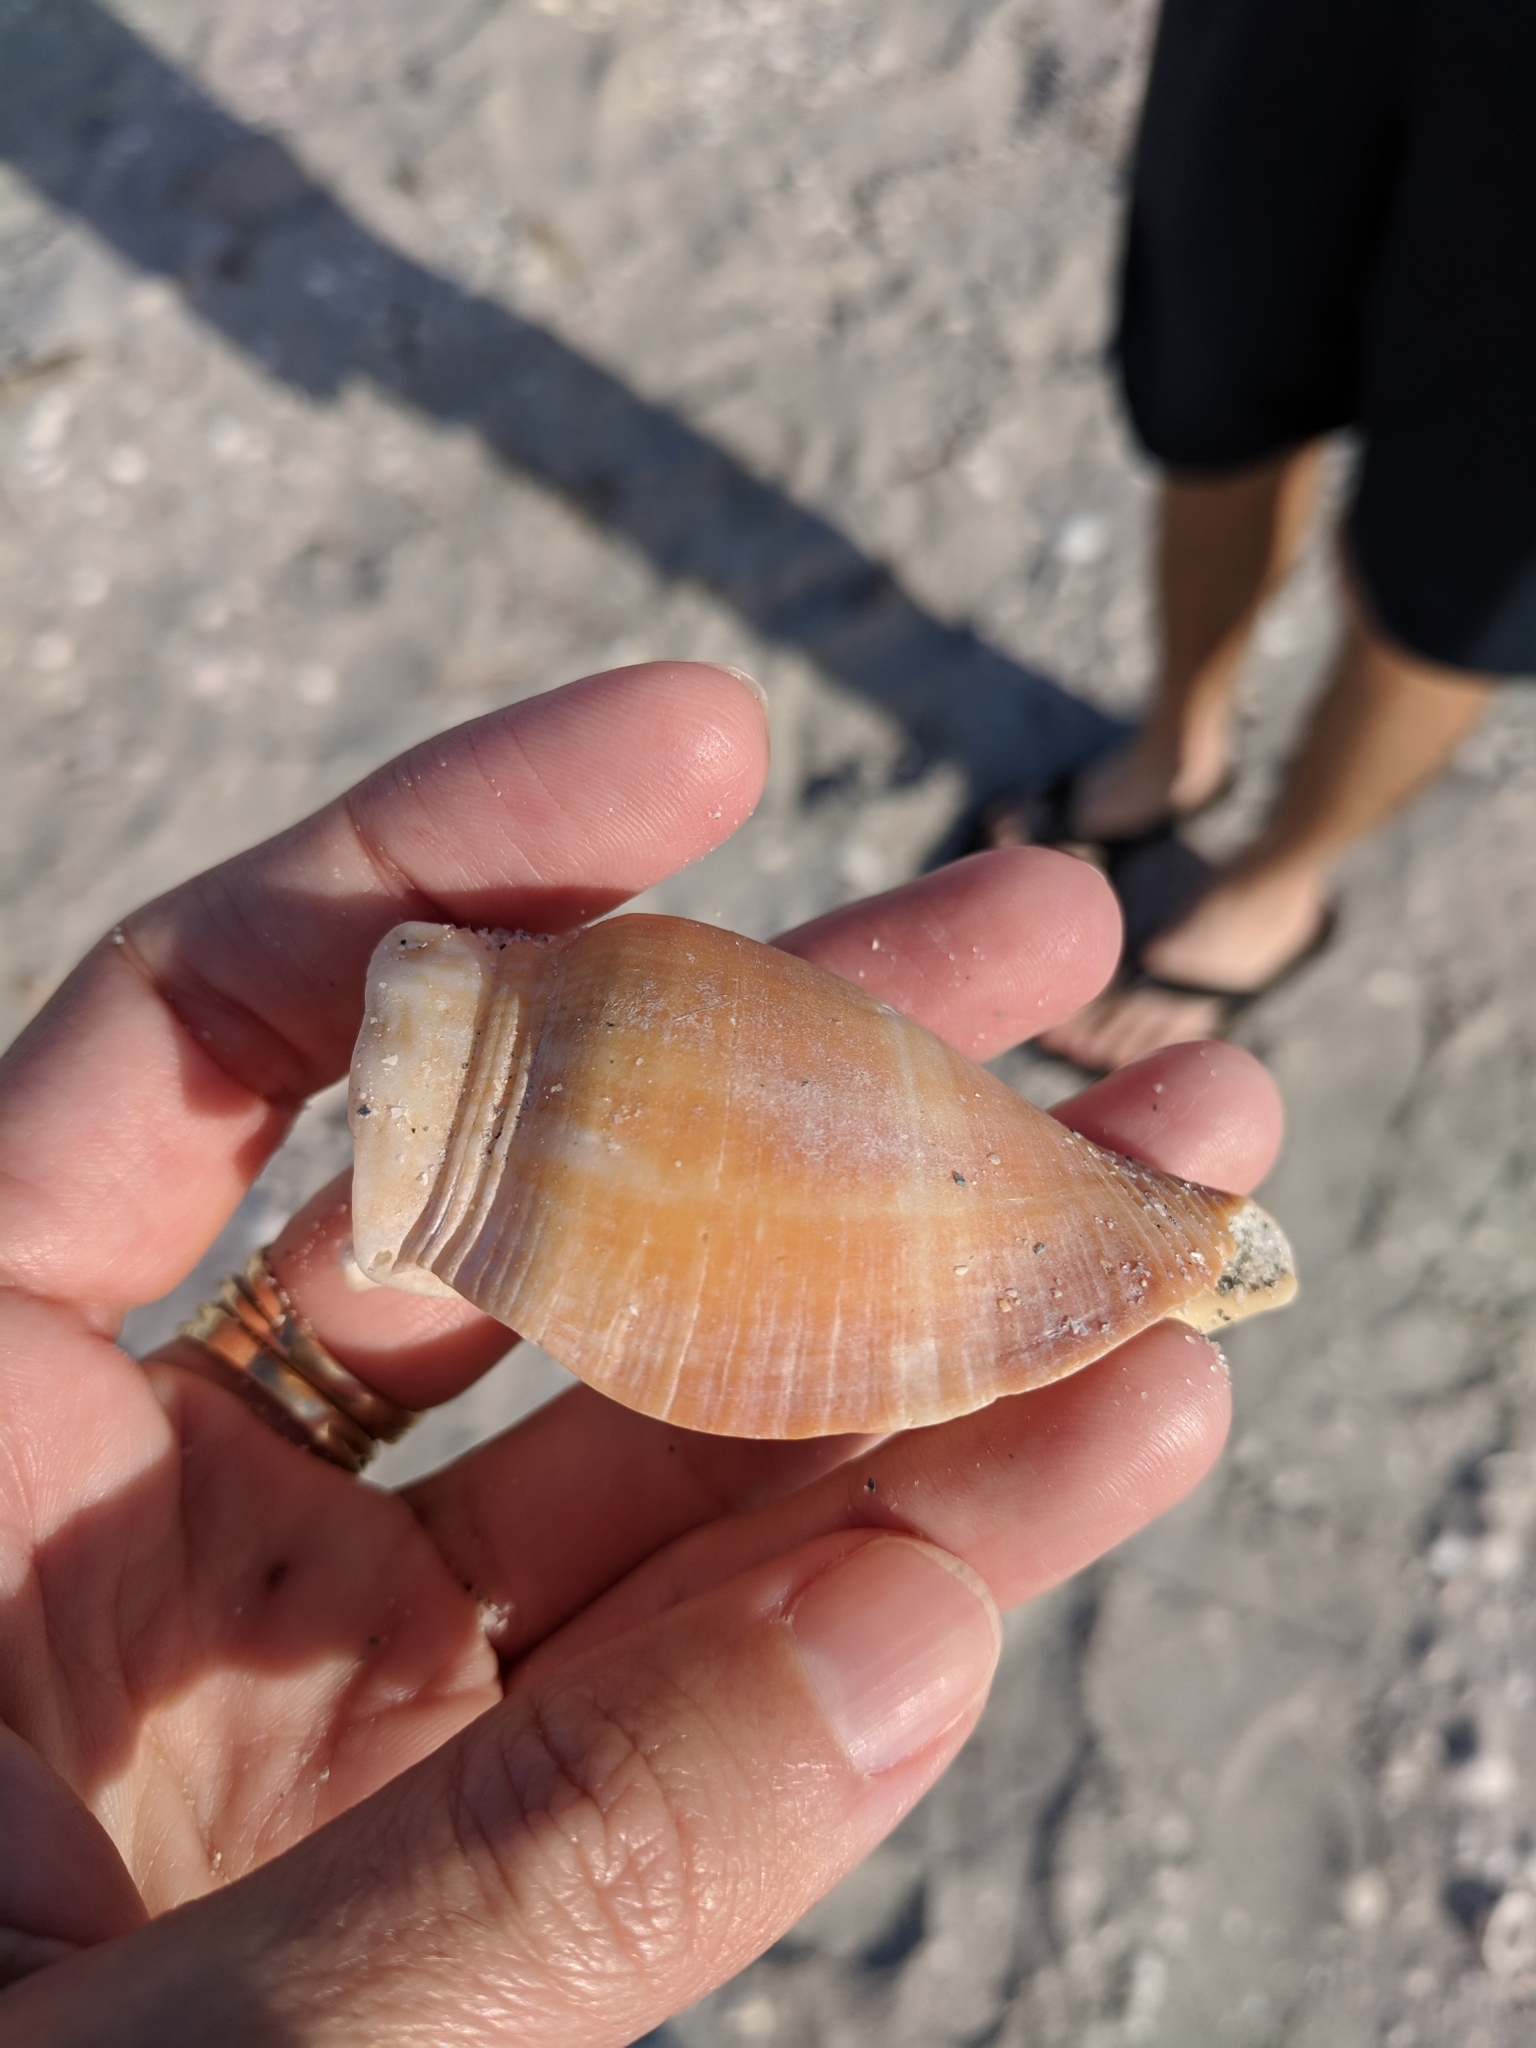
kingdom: Animalia
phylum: Mollusca
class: Gastropoda
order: Littorinimorpha
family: Strombidae
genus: Strombus
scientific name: Strombus alatus
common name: Florida fighting conch
